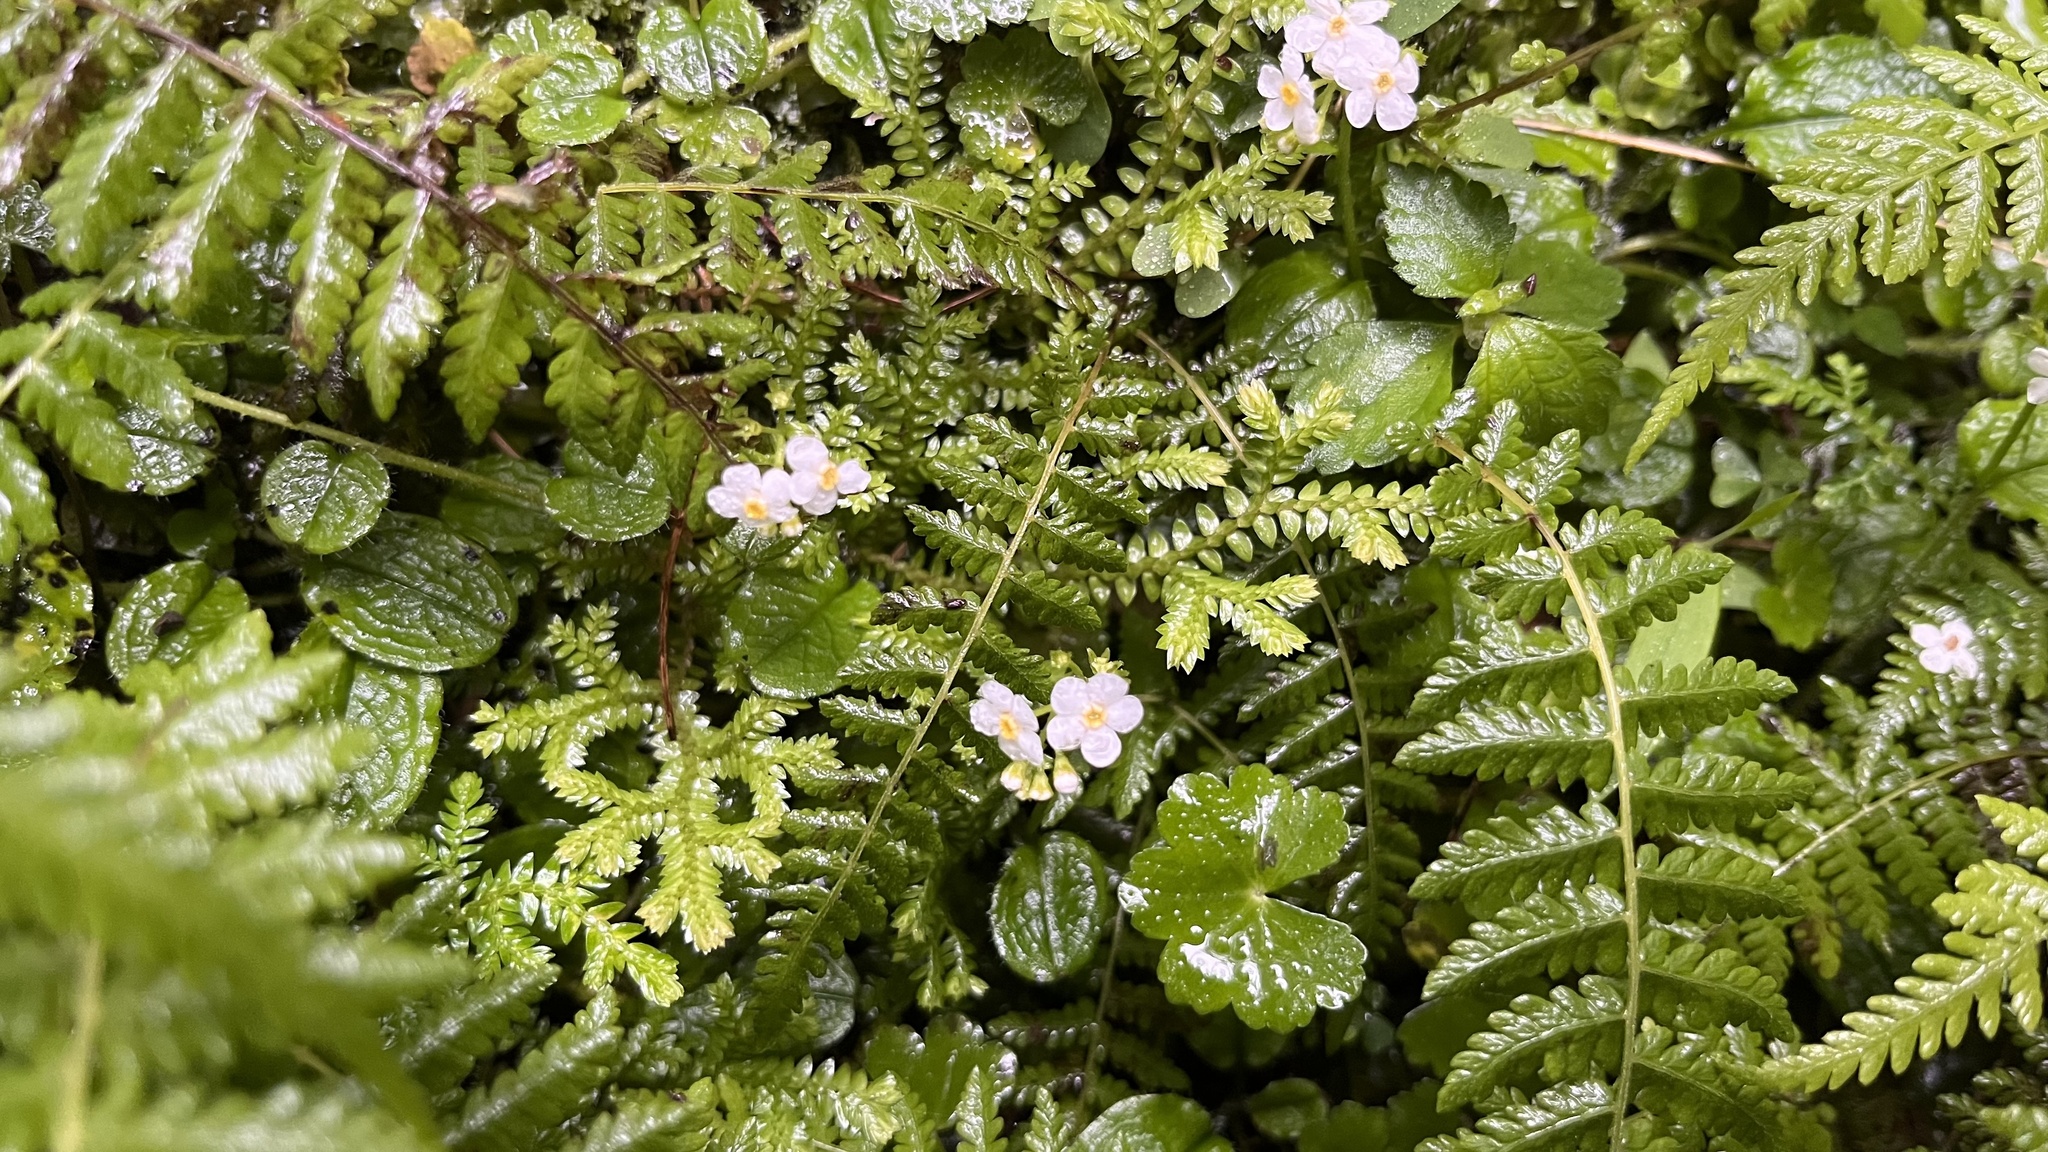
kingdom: Plantae
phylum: Tracheophyta
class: Magnoliopsida
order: Boraginales
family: Boraginaceae
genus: Trigonotis
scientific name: Trigonotis formosana
